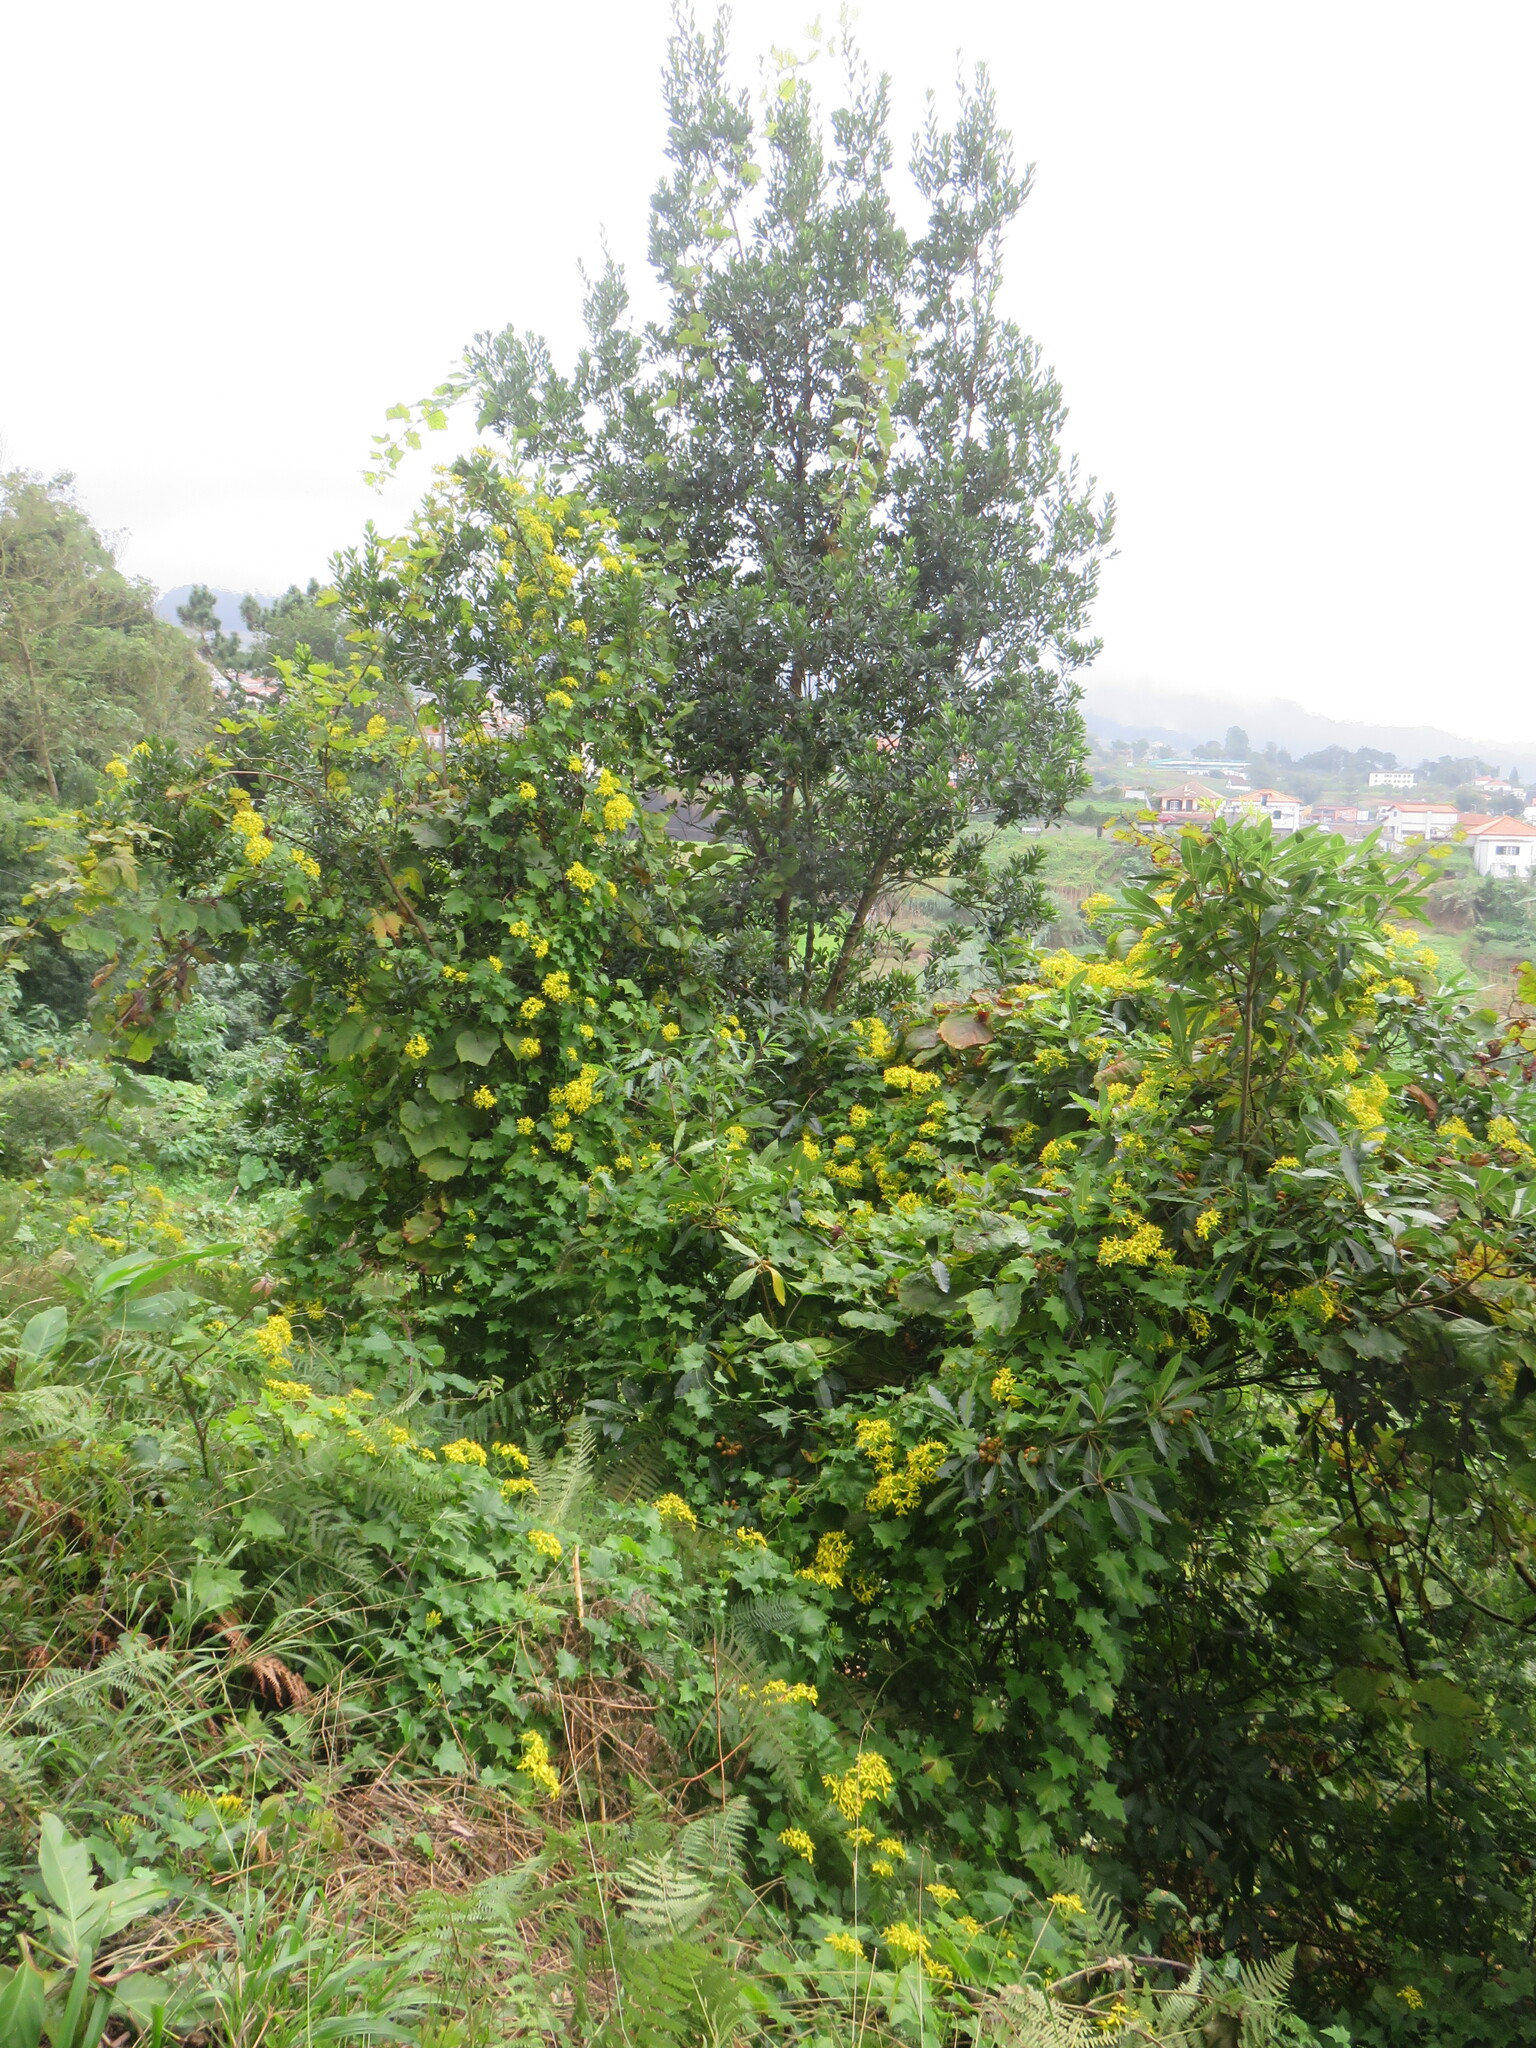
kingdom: Plantae
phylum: Tracheophyta
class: Magnoliopsida
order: Asterales
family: Asteraceae
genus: Delairea
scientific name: Delairea odorata
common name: Cape-ivy
